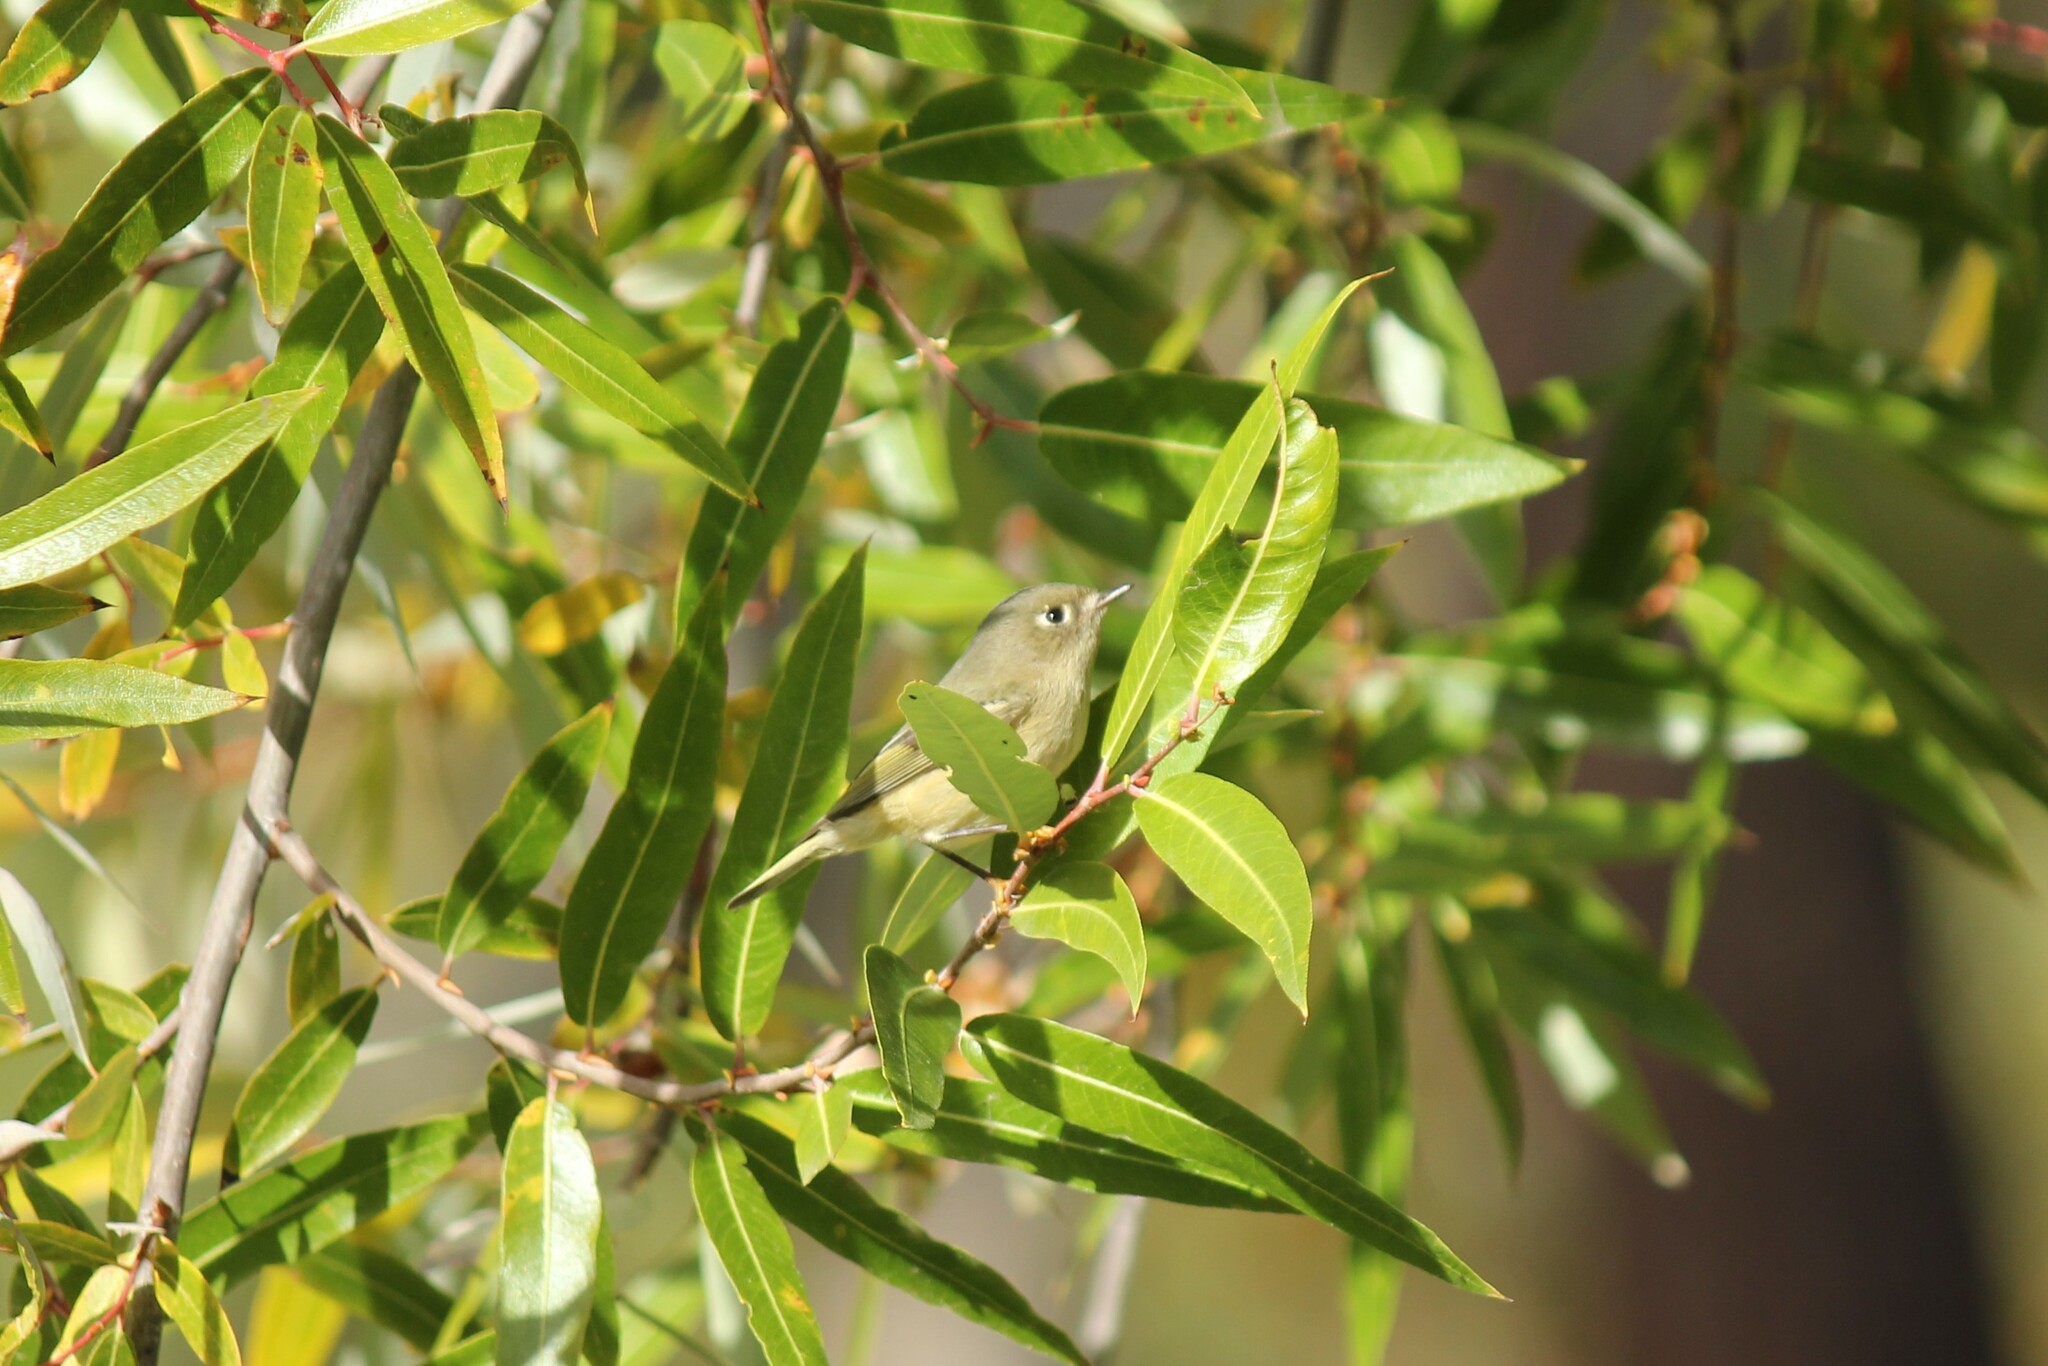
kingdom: Animalia
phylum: Chordata
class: Aves
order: Passeriformes
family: Regulidae
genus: Regulus
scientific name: Regulus calendula
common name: Ruby-crowned kinglet
